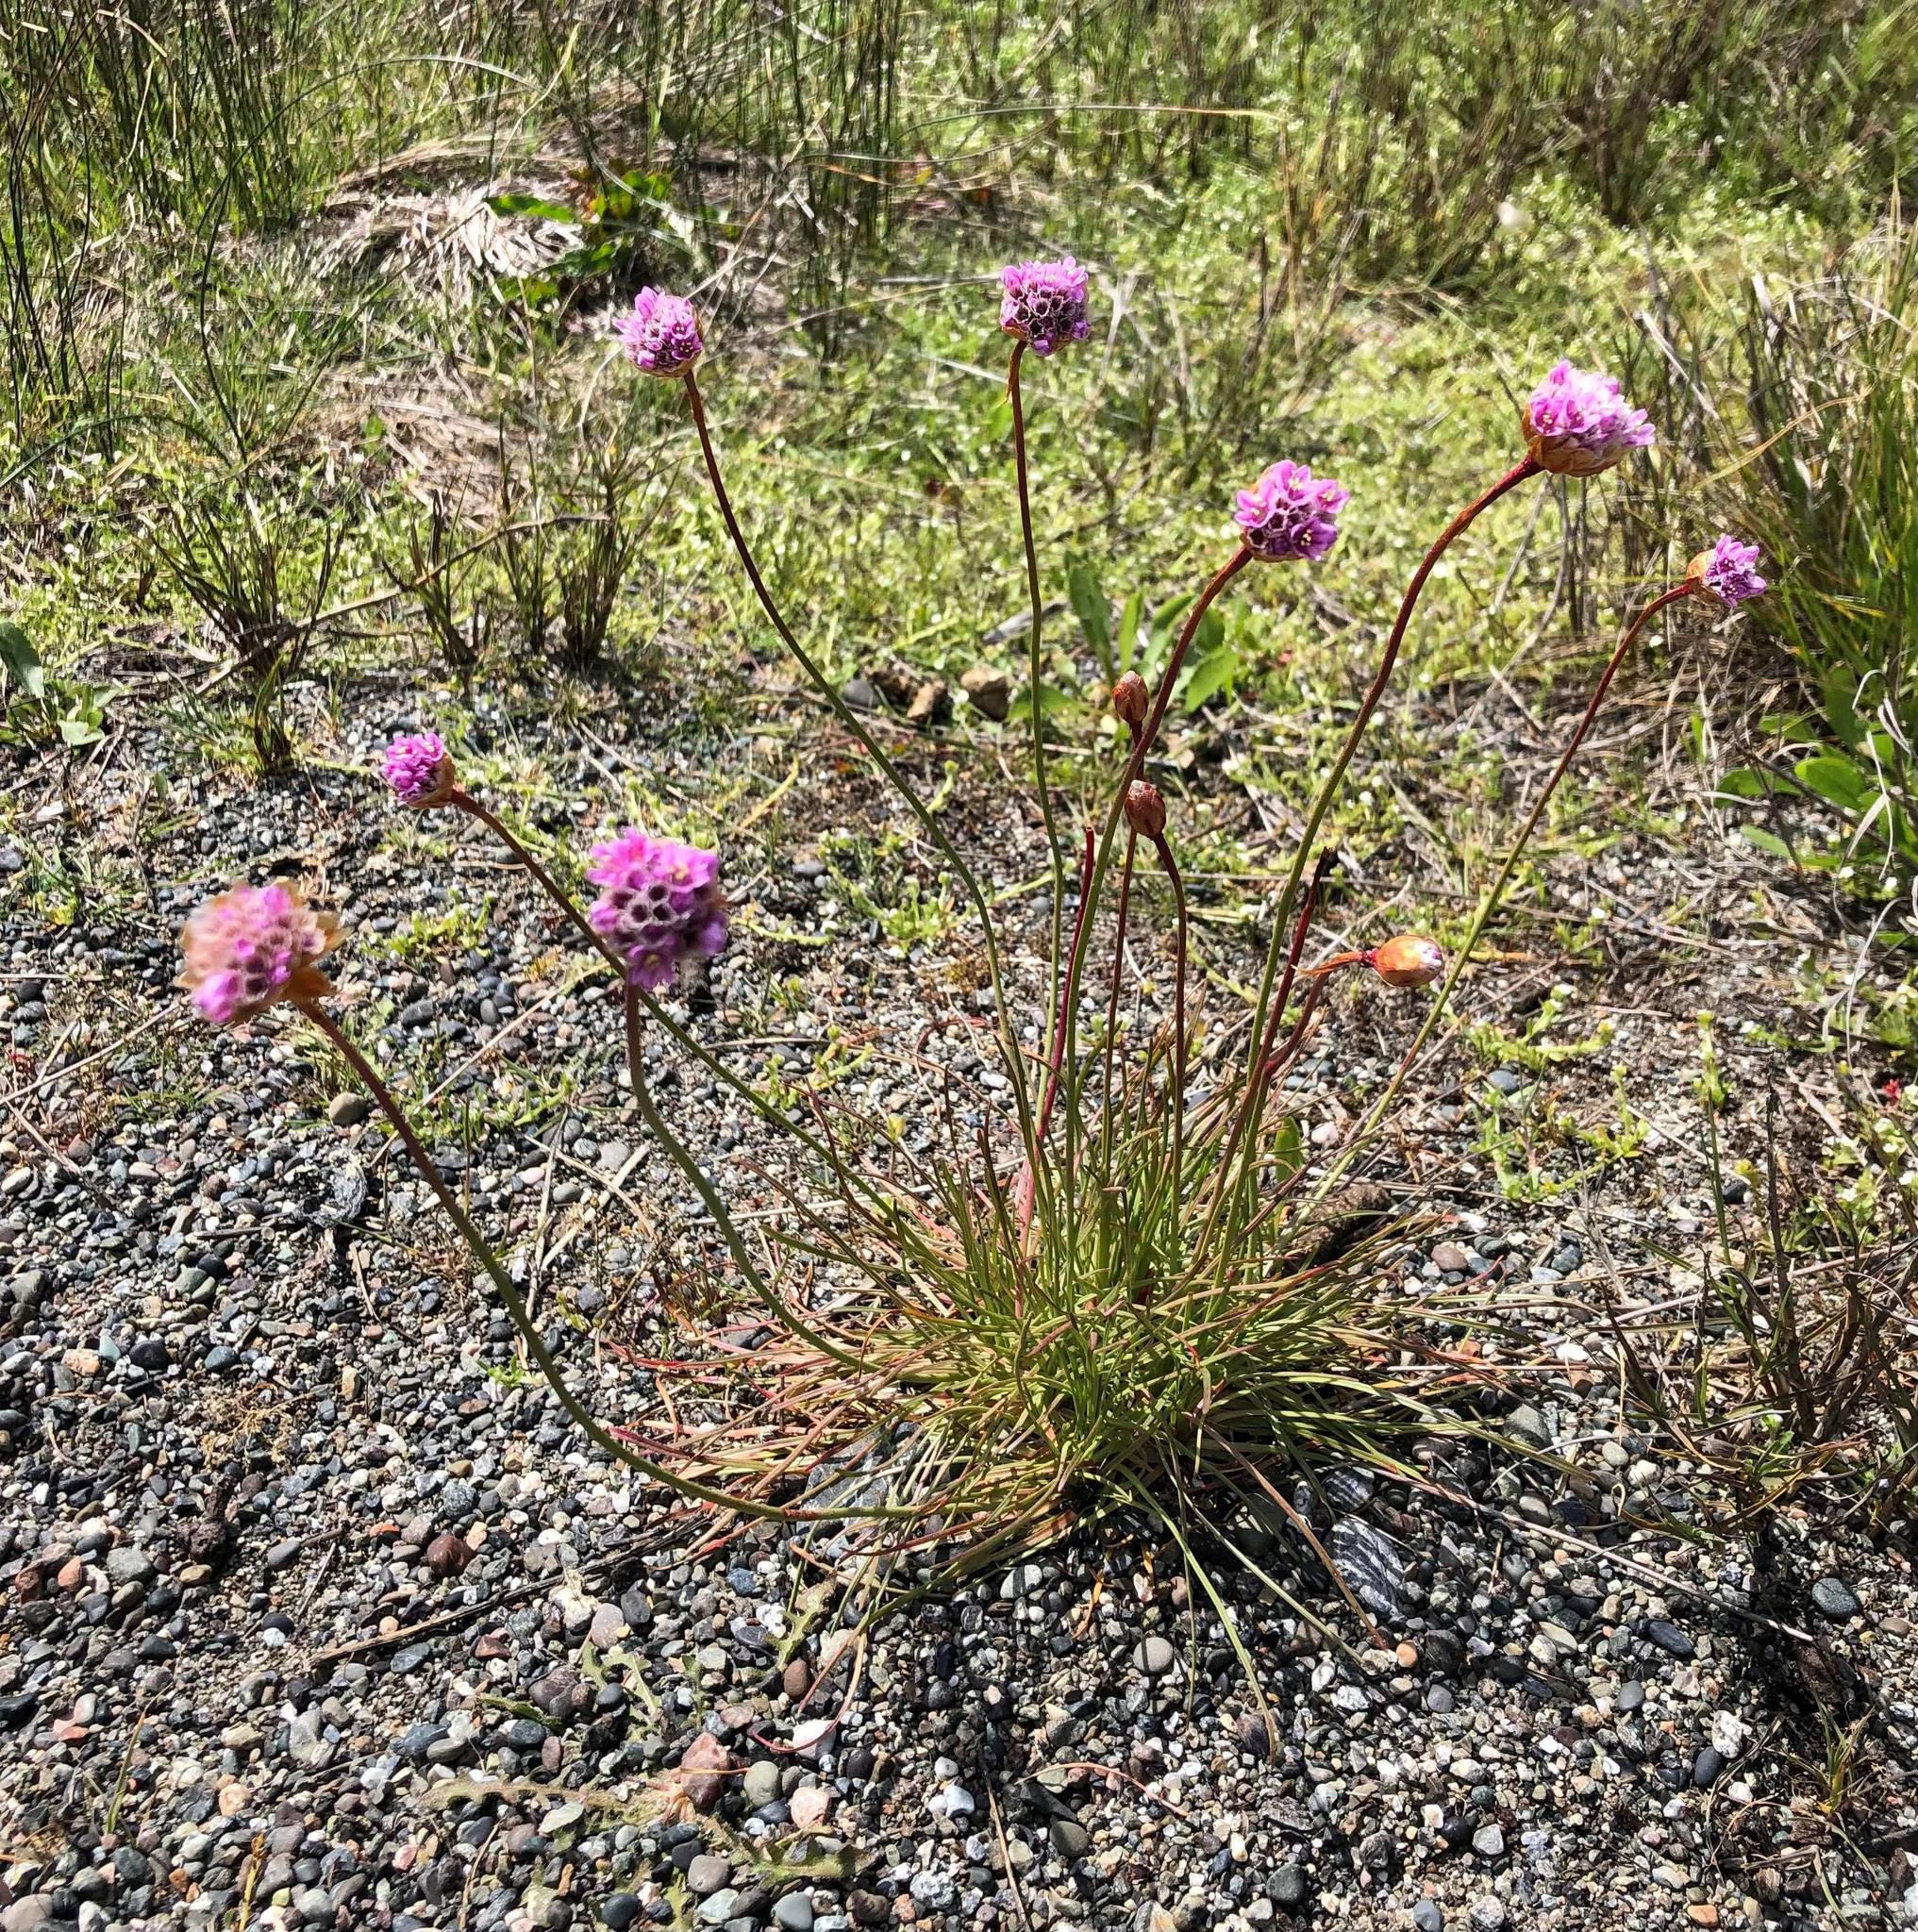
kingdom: Plantae
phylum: Tracheophyta
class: Magnoliopsida
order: Caryophyllales
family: Plumbaginaceae
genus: Armeria
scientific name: Armeria maritima
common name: Thrift
